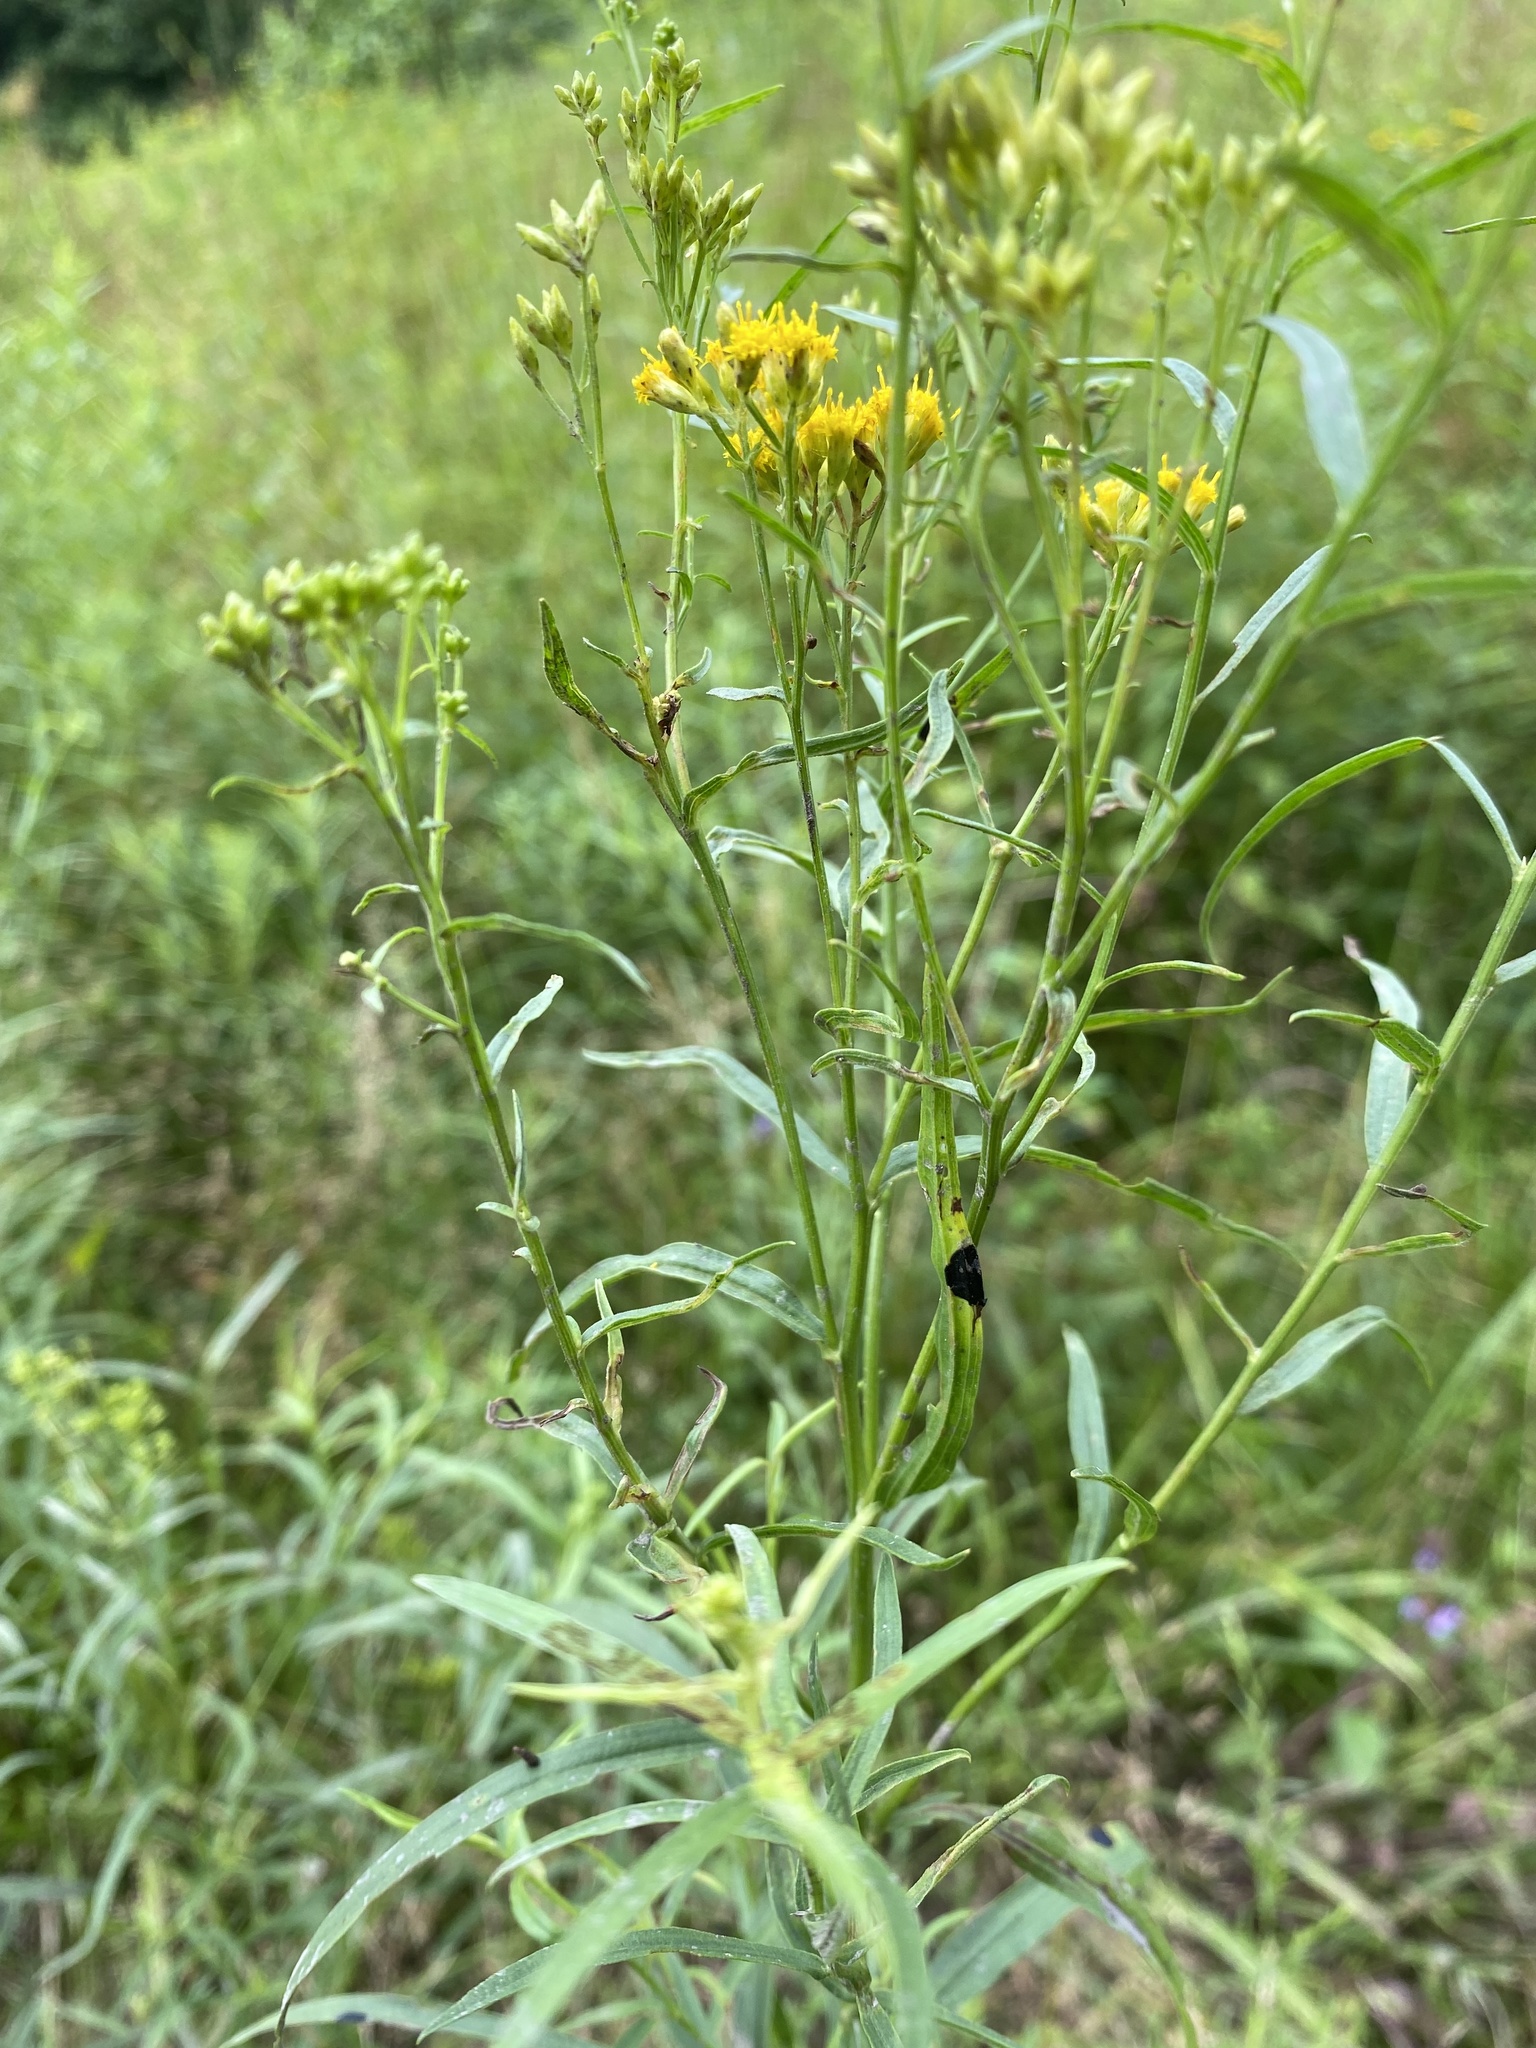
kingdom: Animalia
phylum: Arthropoda
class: Insecta
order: Diptera
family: Cecidomyiidae
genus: Asteromyia
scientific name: Asteromyia euthamiae
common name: Euthamia leaf gall midge
